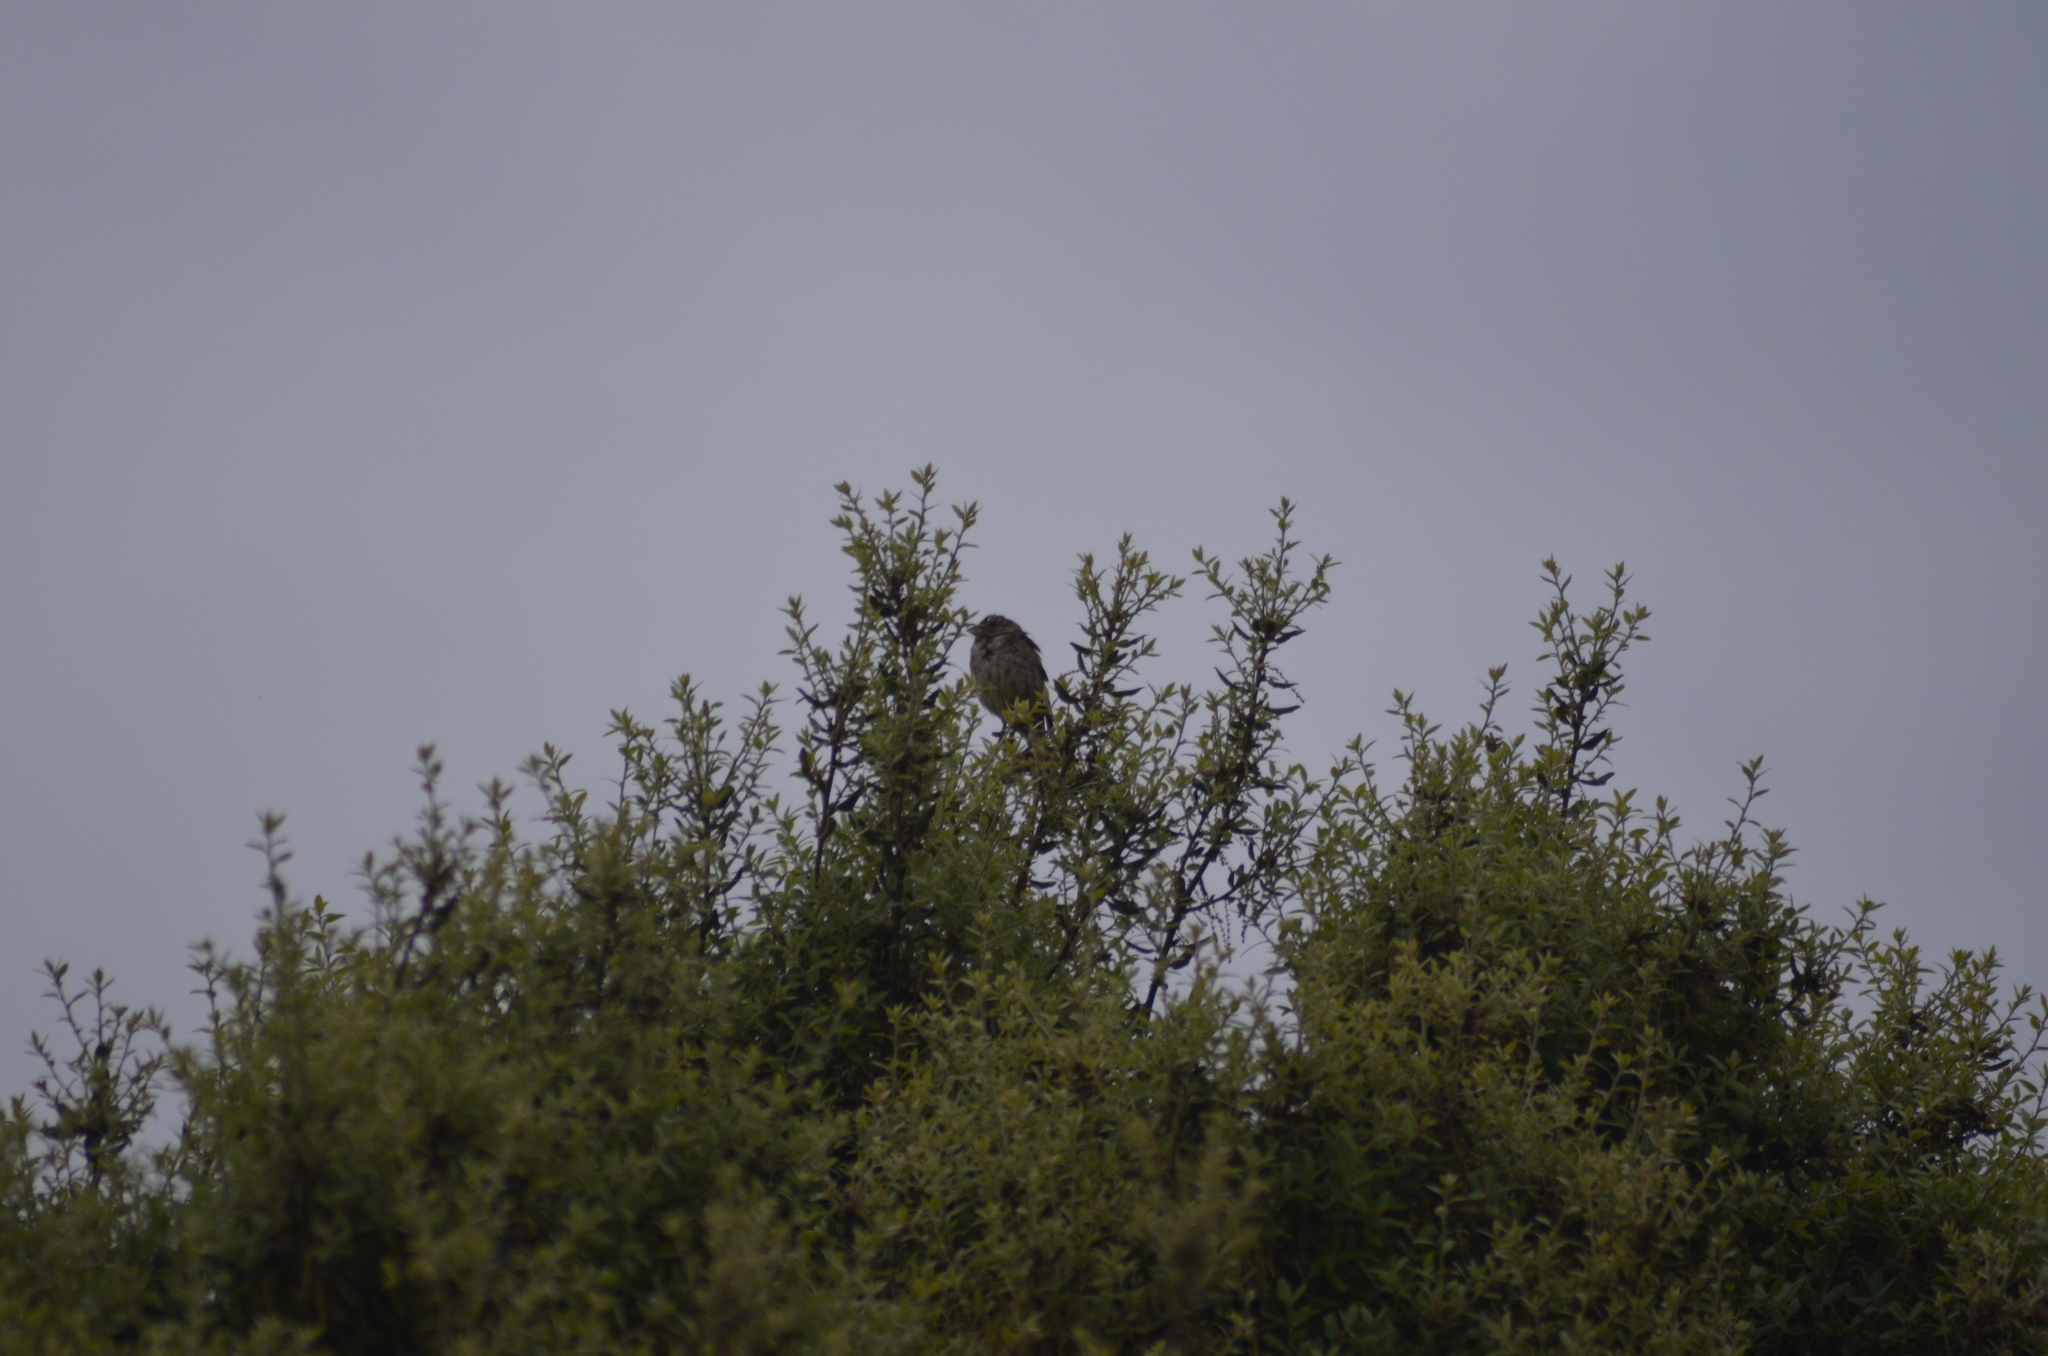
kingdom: Animalia
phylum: Chordata
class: Aves
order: Passeriformes
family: Emberizidae
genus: Emberiza
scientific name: Emberiza calandra
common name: Corn bunting
